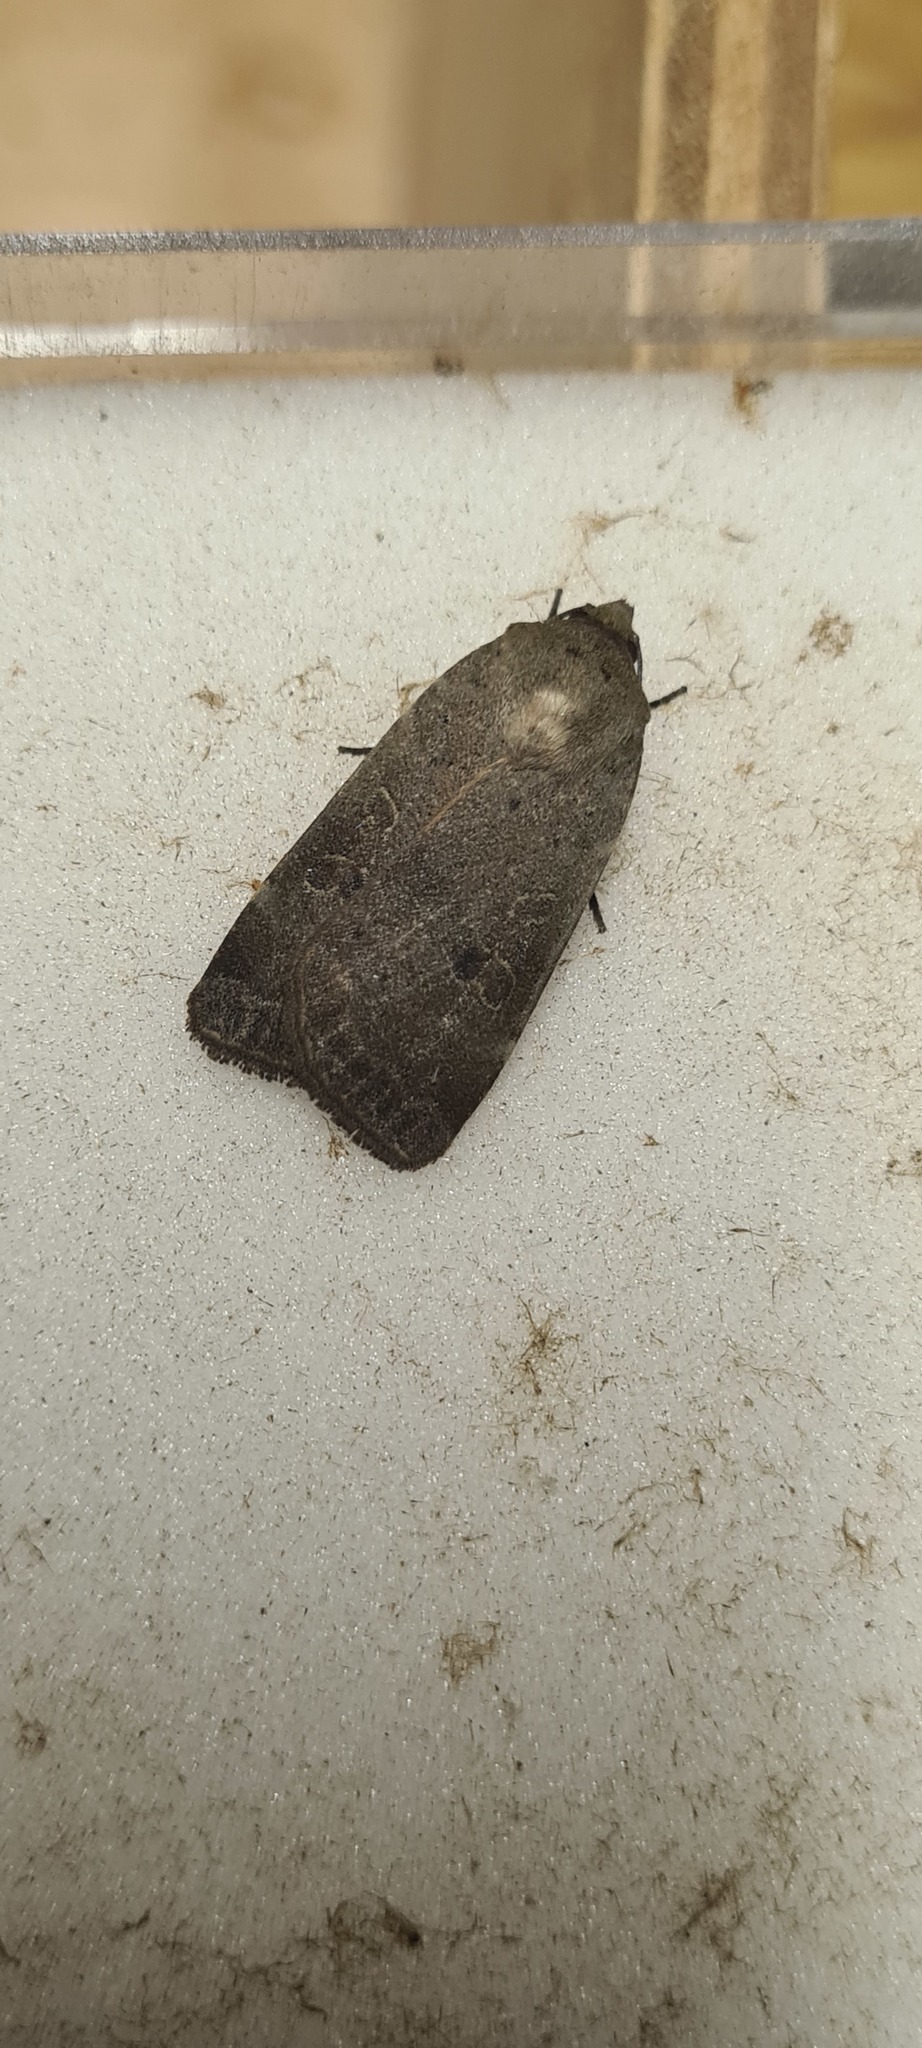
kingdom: Animalia
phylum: Arthropoda
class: Insecta
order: Lepidoptera
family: Noctuidae
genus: Noctua
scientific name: Noctua comes
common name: Lesser yellow underwing
